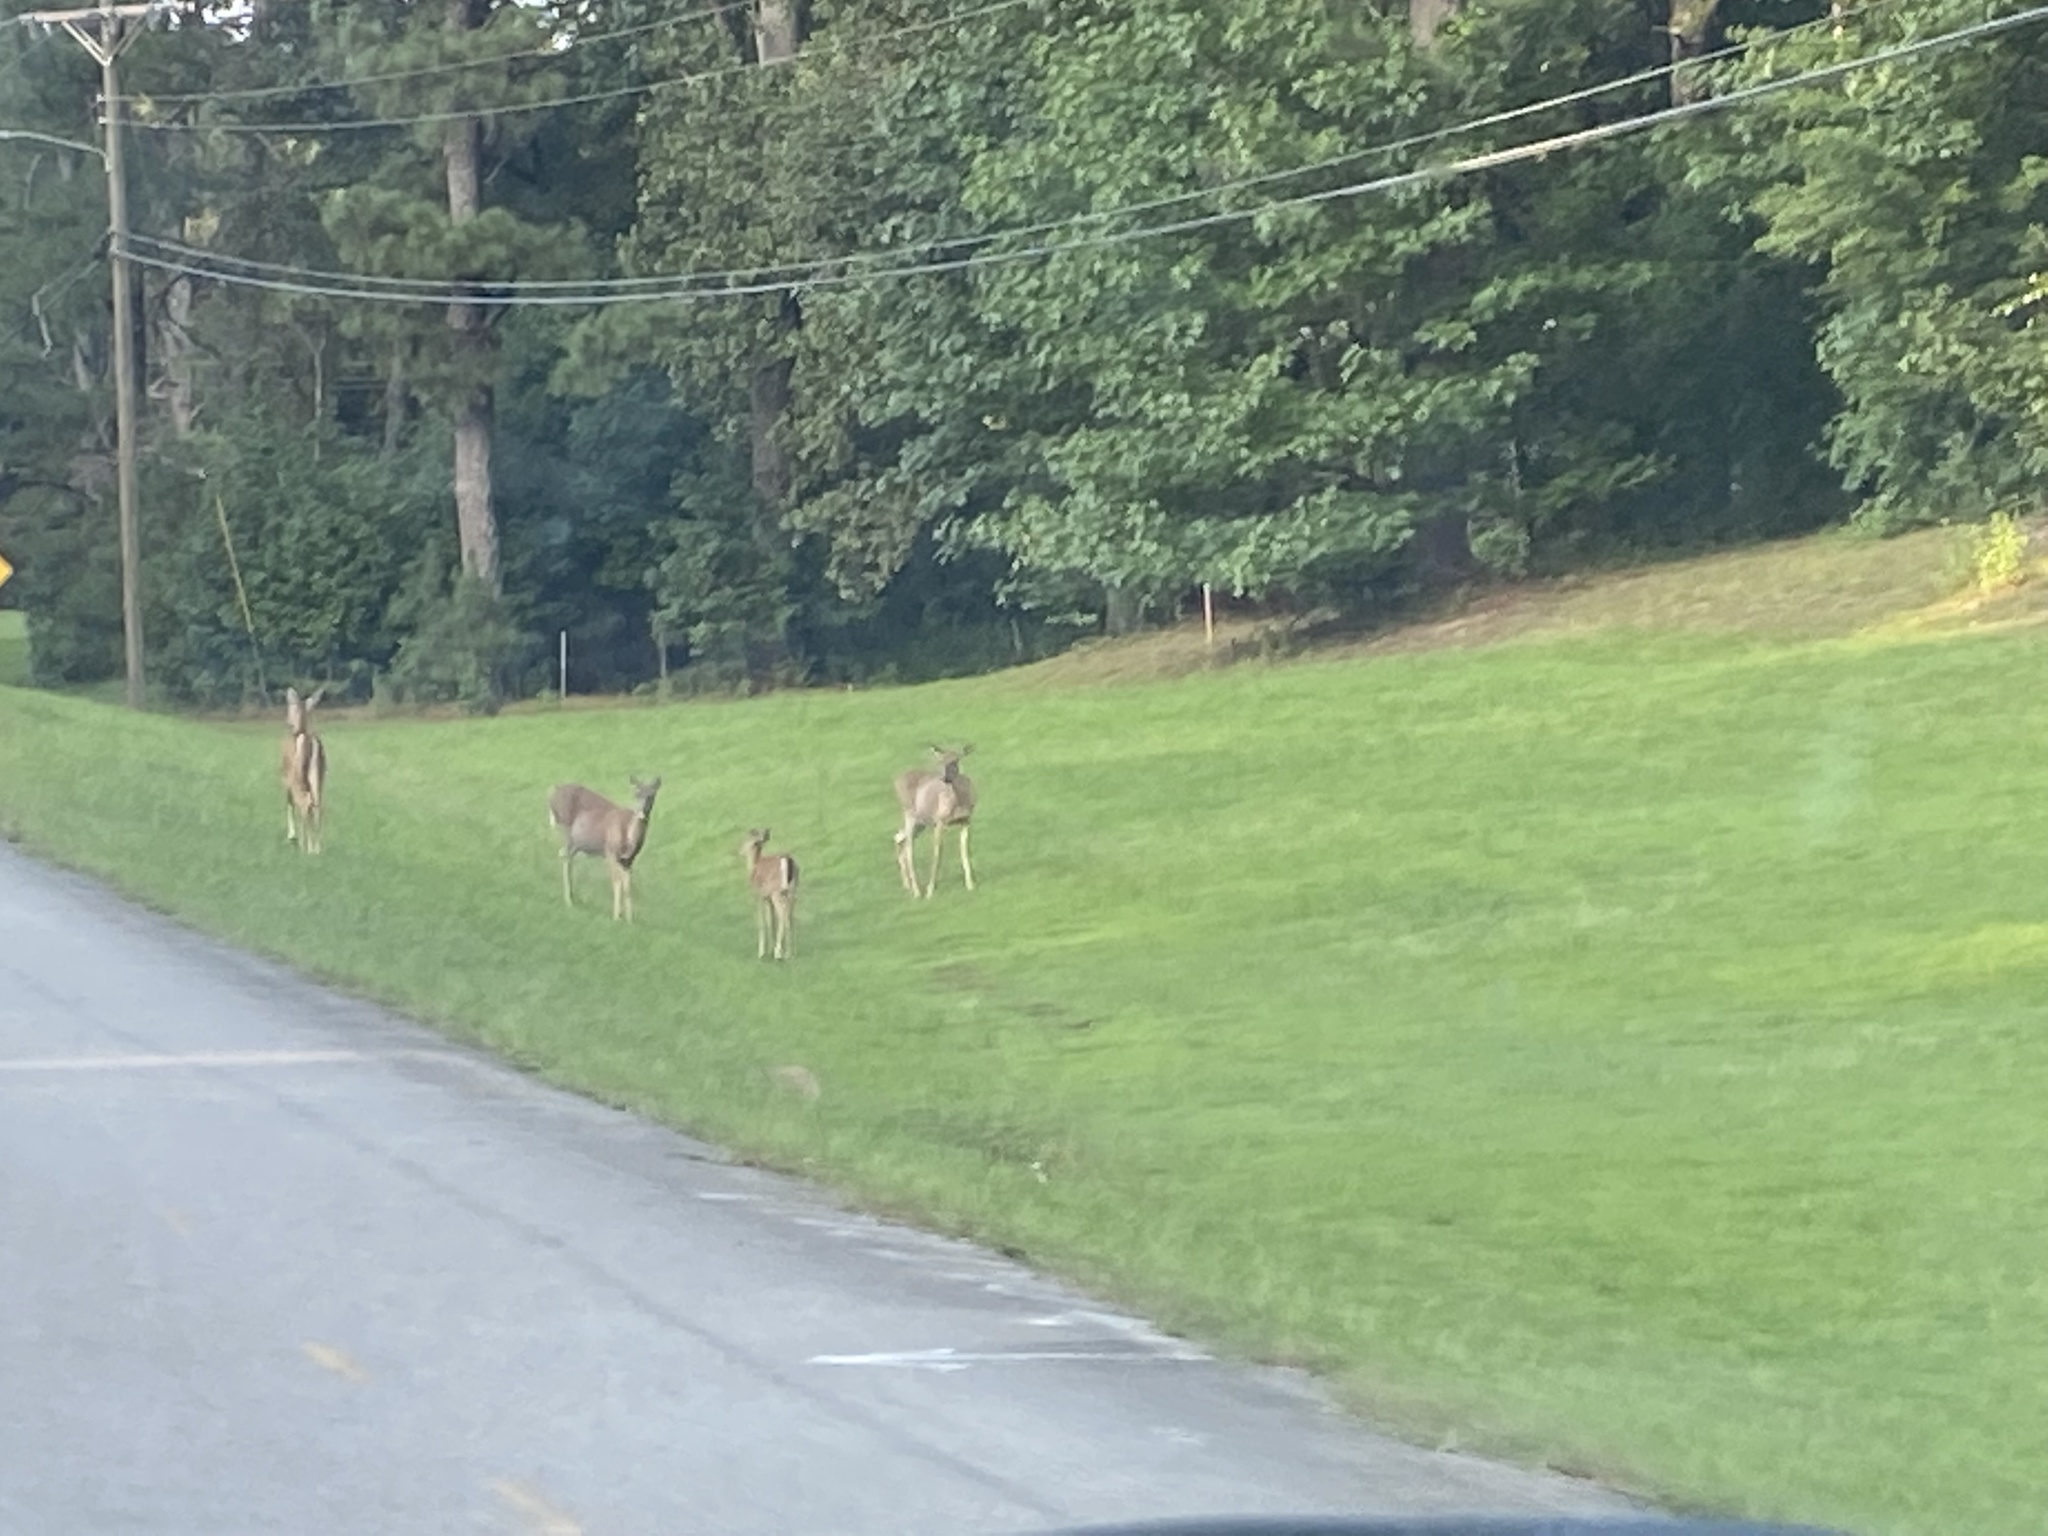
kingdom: Animalia
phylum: Chordata
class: Mammalia
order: Artiodactyla
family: Cervidae
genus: Odocoileus
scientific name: Odocoileus virginianus
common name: White-tailed deer
